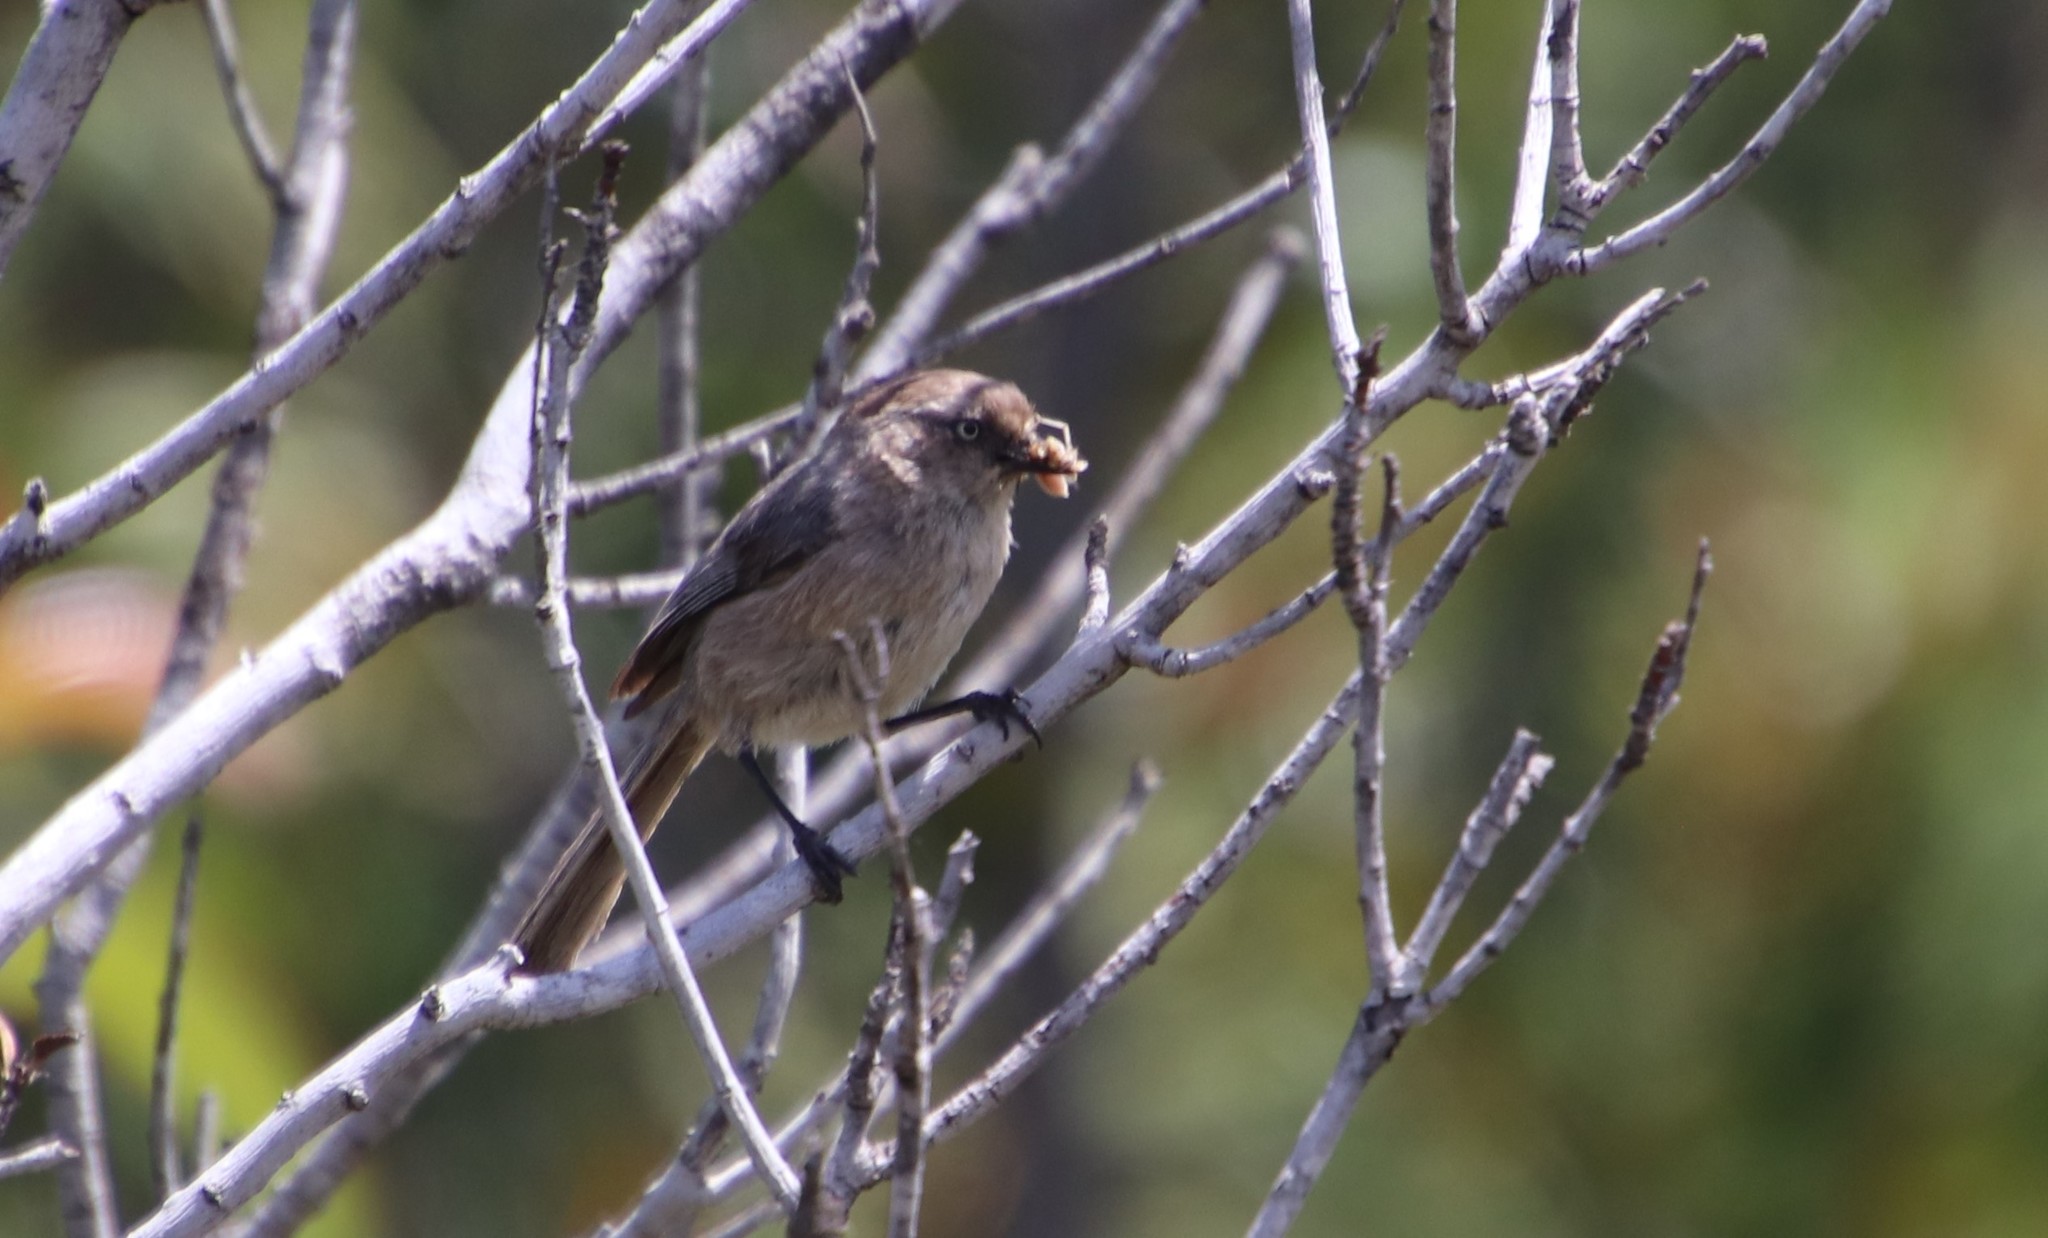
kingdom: Animalia
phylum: Chordata
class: Aves
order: Passeriformes
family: Aegithalidae
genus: Psaltriparus
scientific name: Psaltriparus minimus
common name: American bushtit
